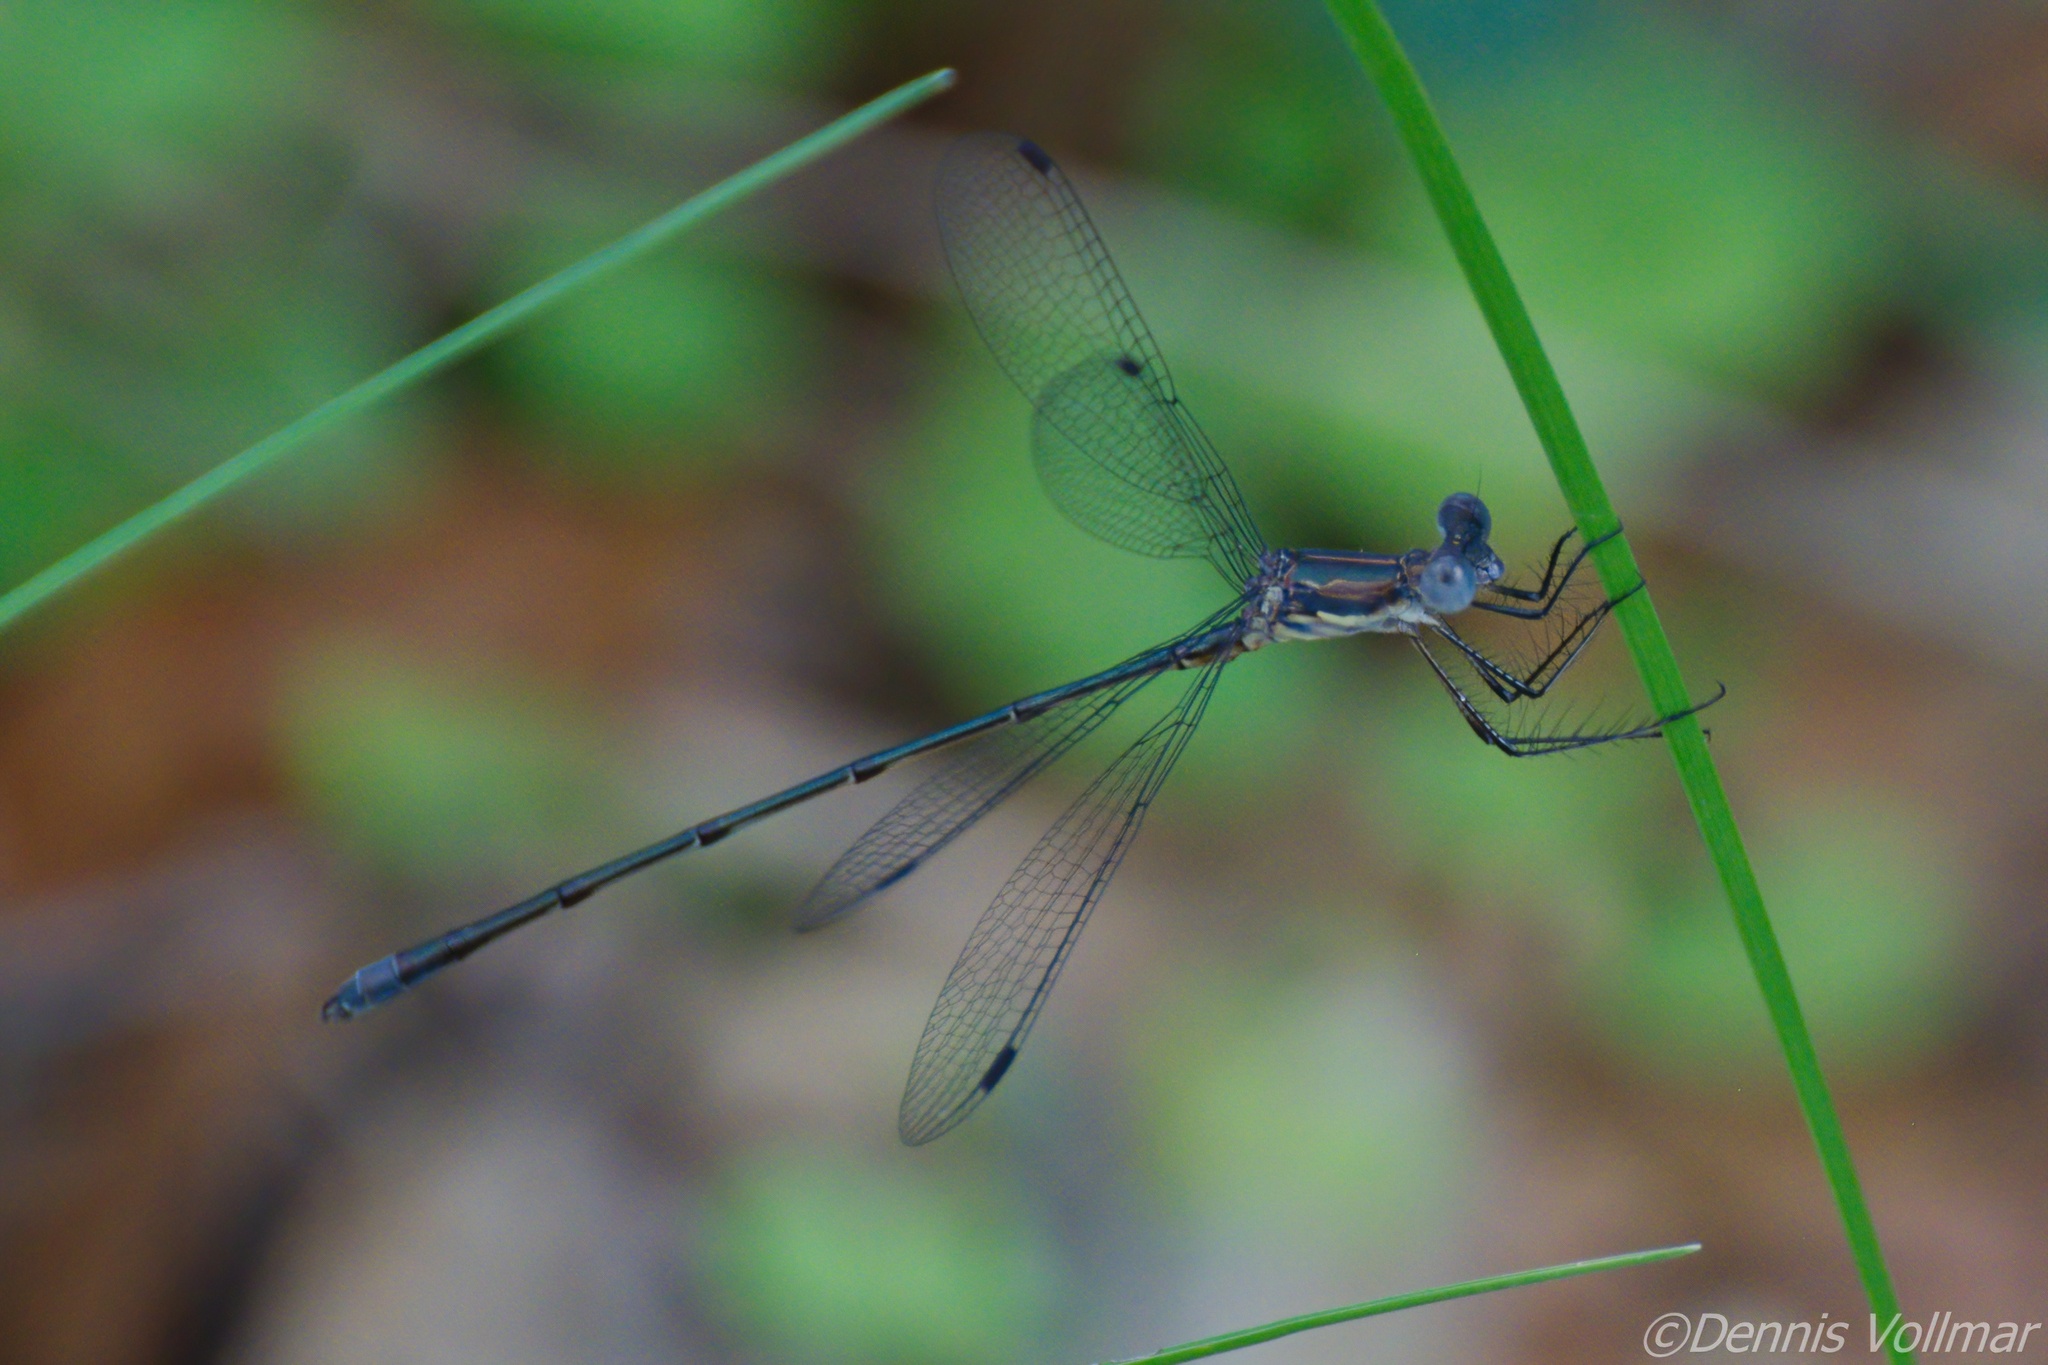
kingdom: Animalia
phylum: Arthropoda
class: Insecta
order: Odonata
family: Lestidae
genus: Lestes
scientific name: Lestes vidua
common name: Carolina spreadwing
